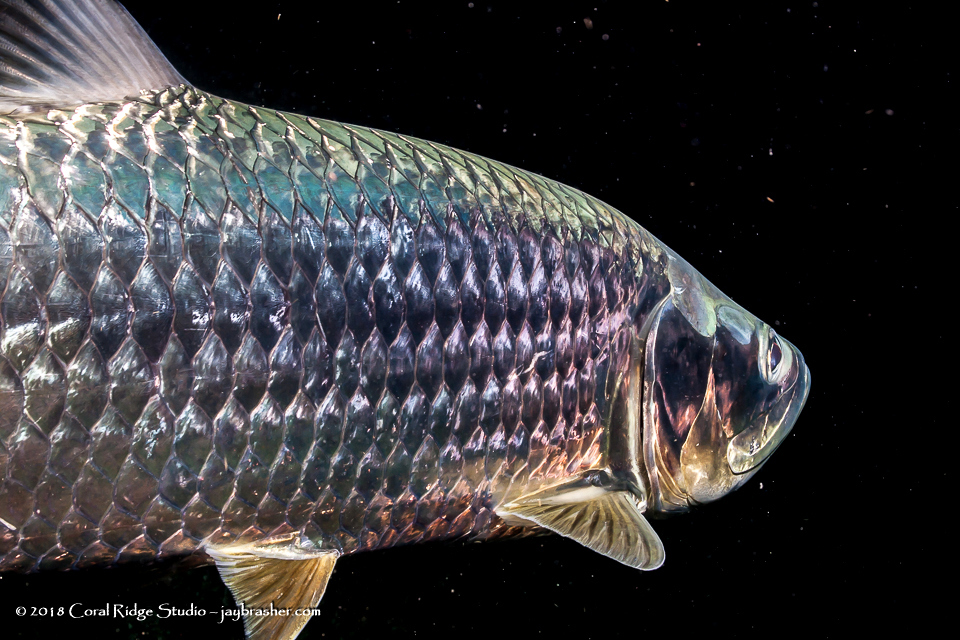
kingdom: Animalia
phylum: Chordata
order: Elopiformes
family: Megalopidae
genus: Megalops
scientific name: Megalops atlanticus
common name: Tarpon
